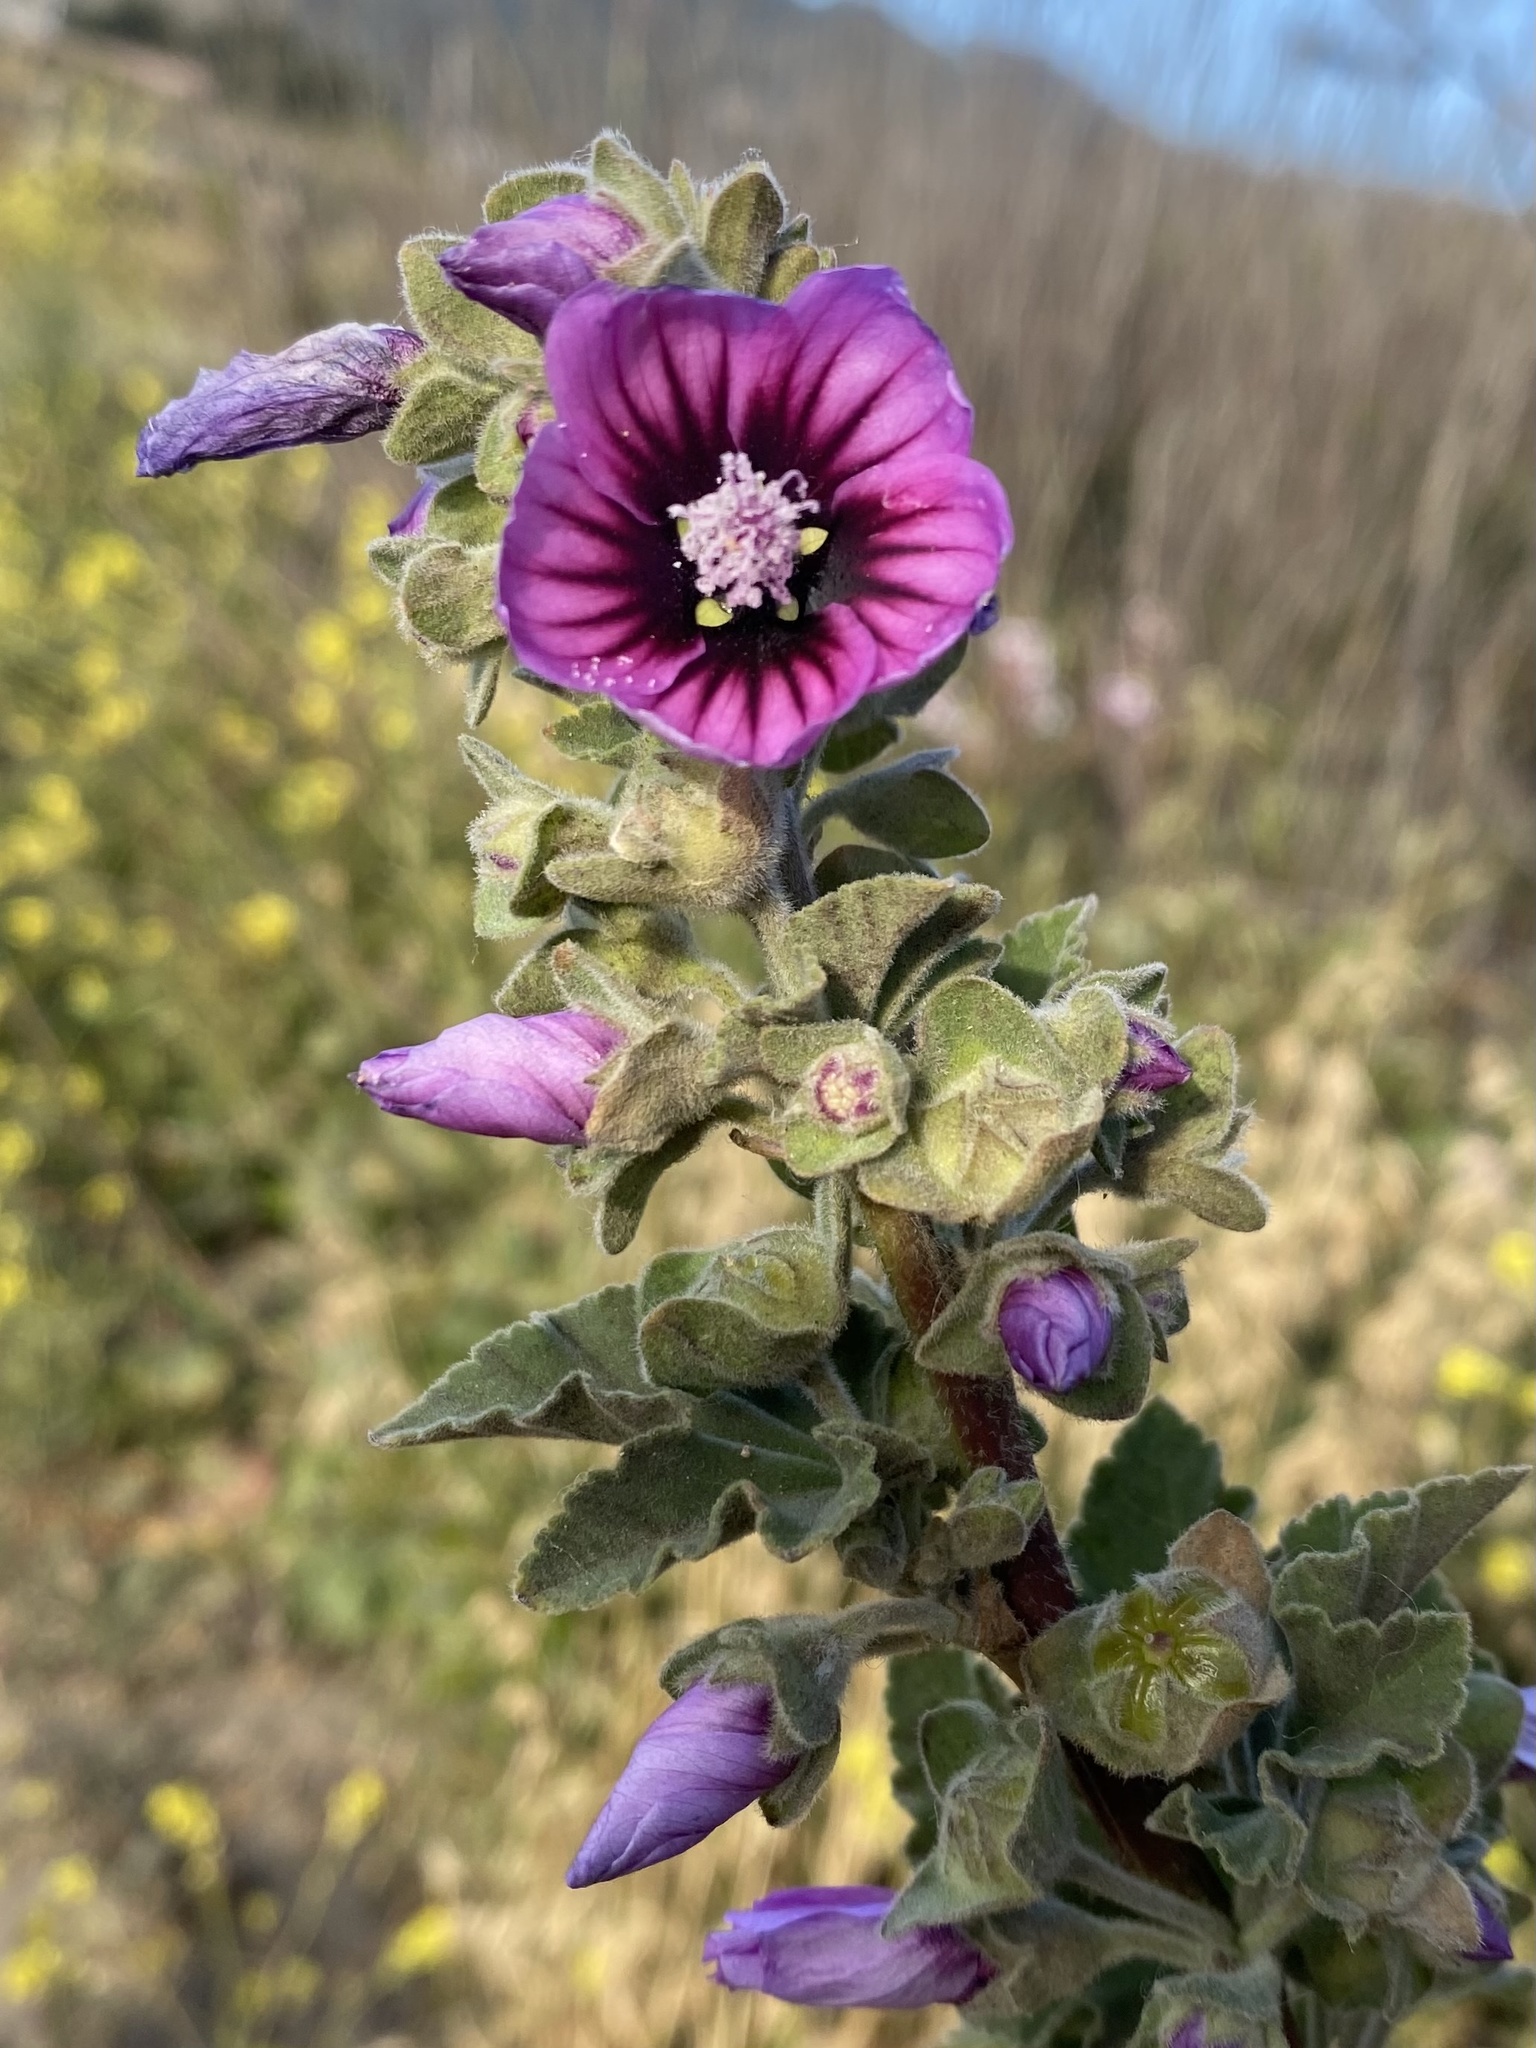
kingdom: Plantae
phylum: Tracheophyta
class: Magnoliopsida
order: Malvales
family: Malvaceae
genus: Malva
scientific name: Malva arborea
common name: Tree mallow
